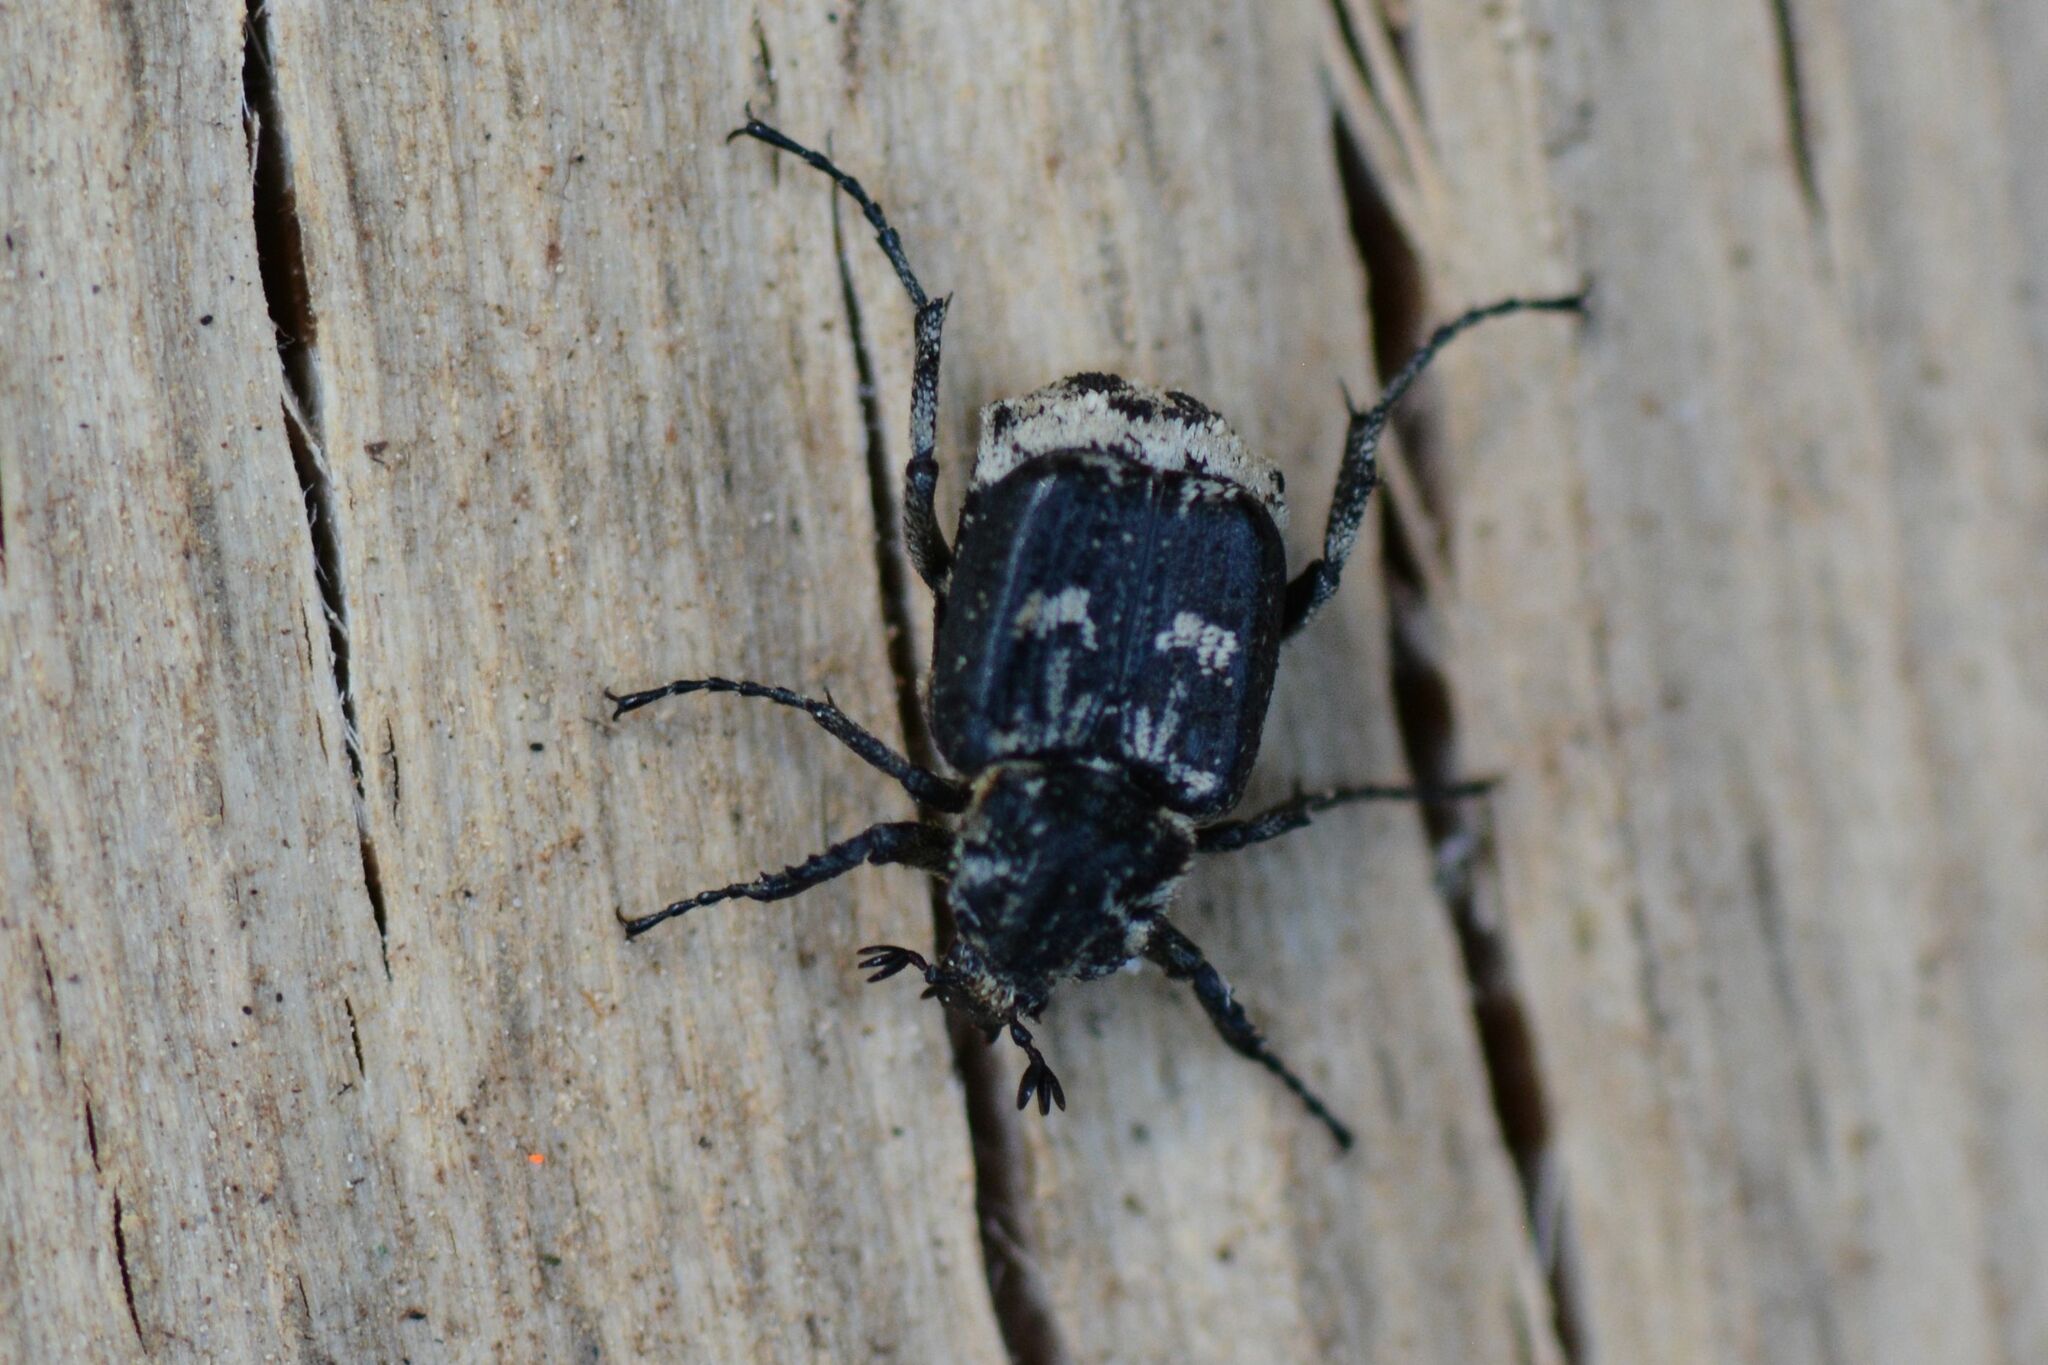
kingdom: Animalia
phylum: Arthropoda
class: Insecta
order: Coleoptera
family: Scarabaeidae
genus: Valgus
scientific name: Valgus hemipterus
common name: Bug flower chafer
